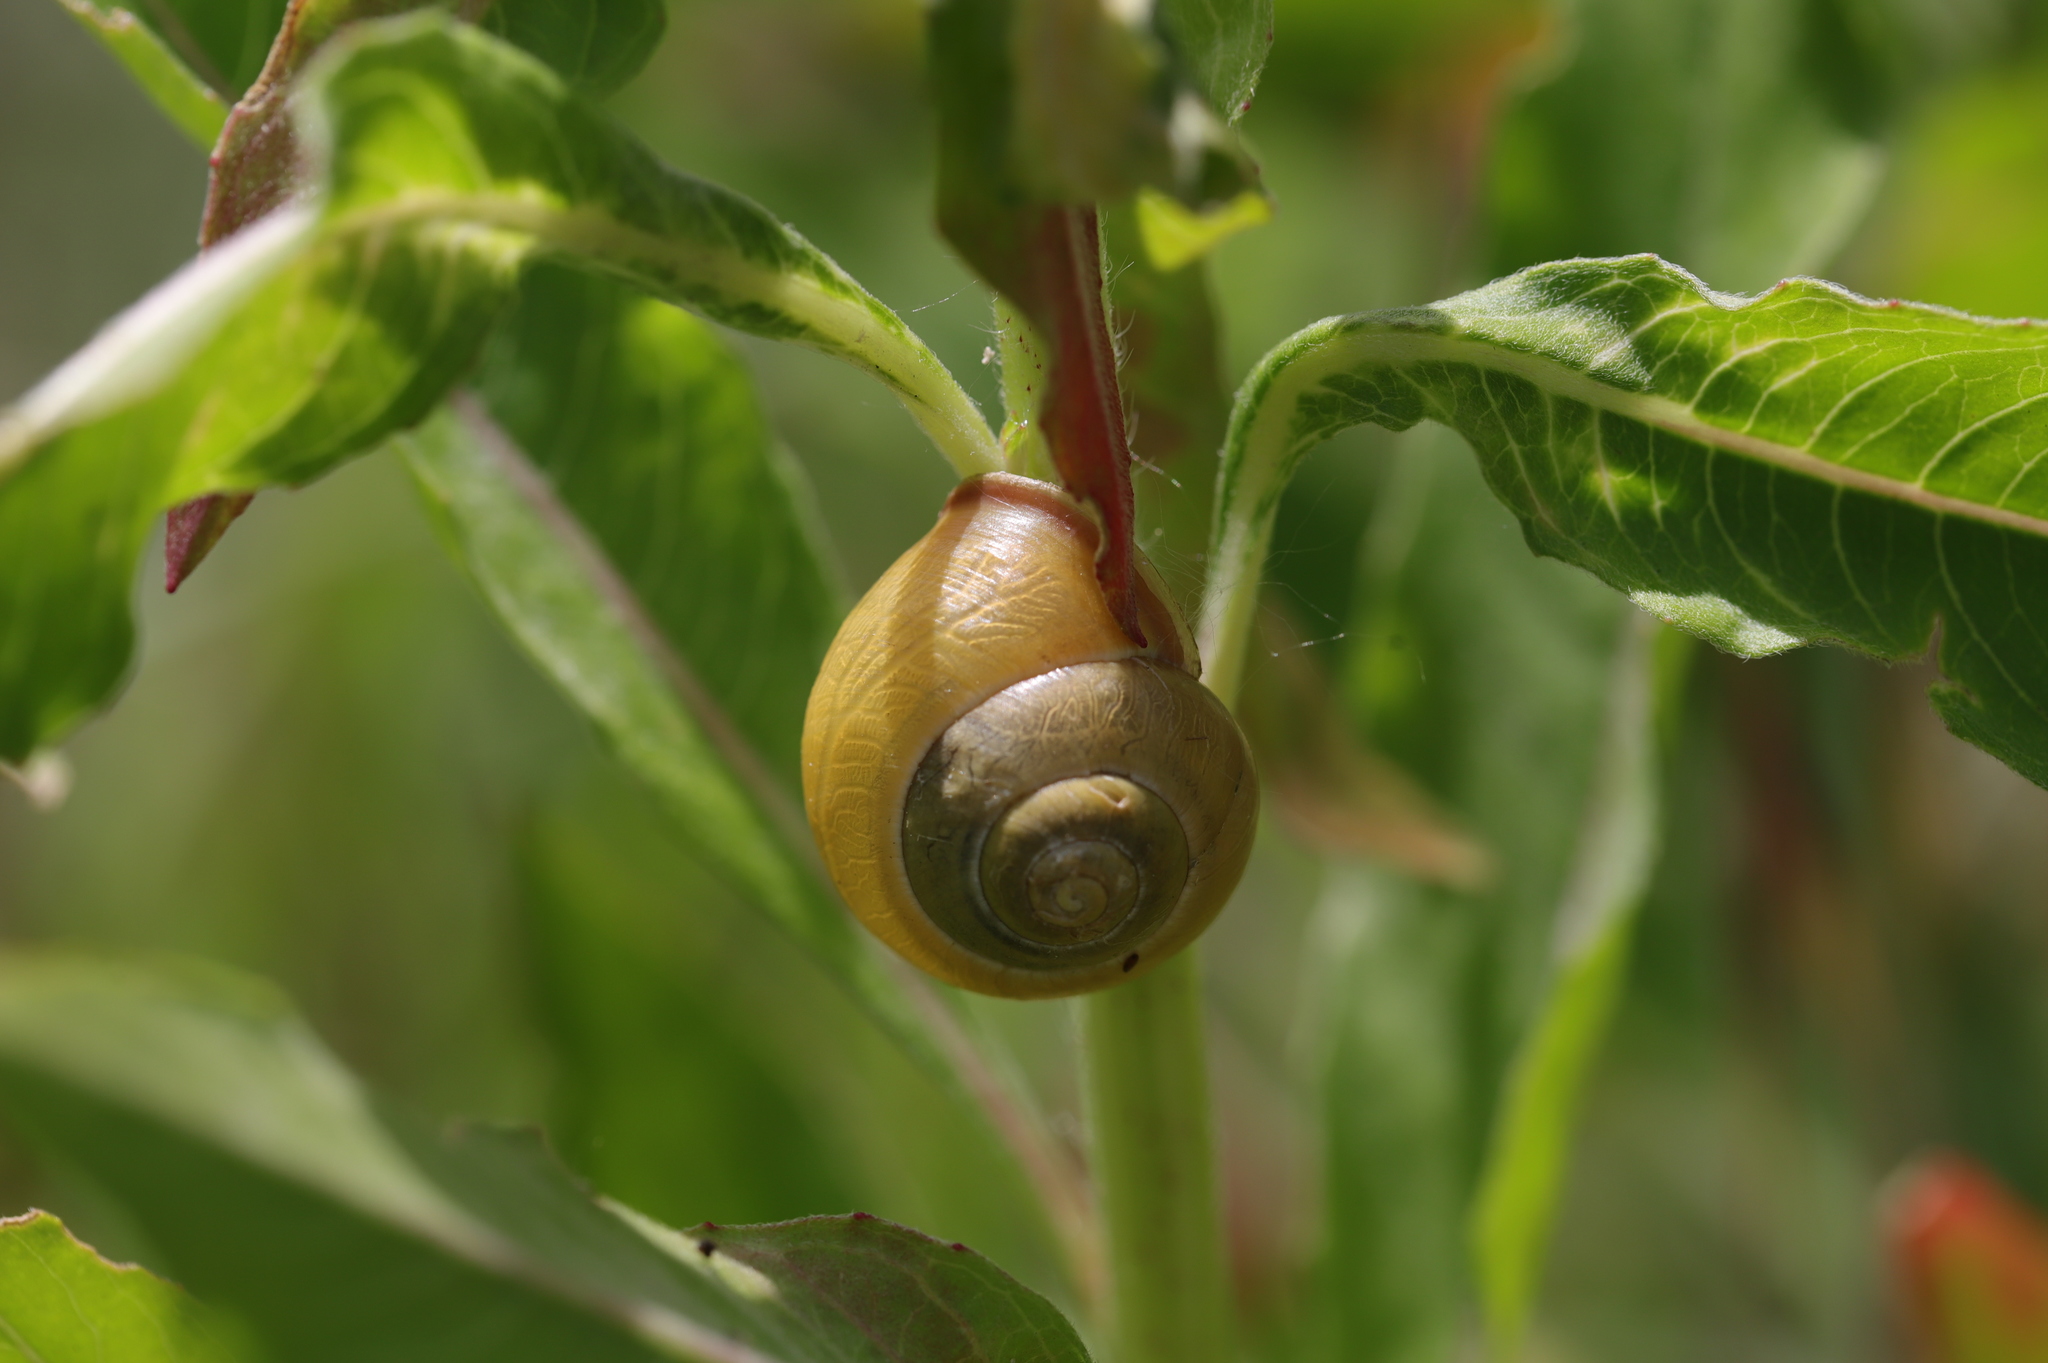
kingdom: Animalia
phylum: Mollusca
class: Gastropoda
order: Stylommatophora
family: Helicidae
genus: Cepaea
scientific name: Cepaea nemoralis
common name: Grovesnail
